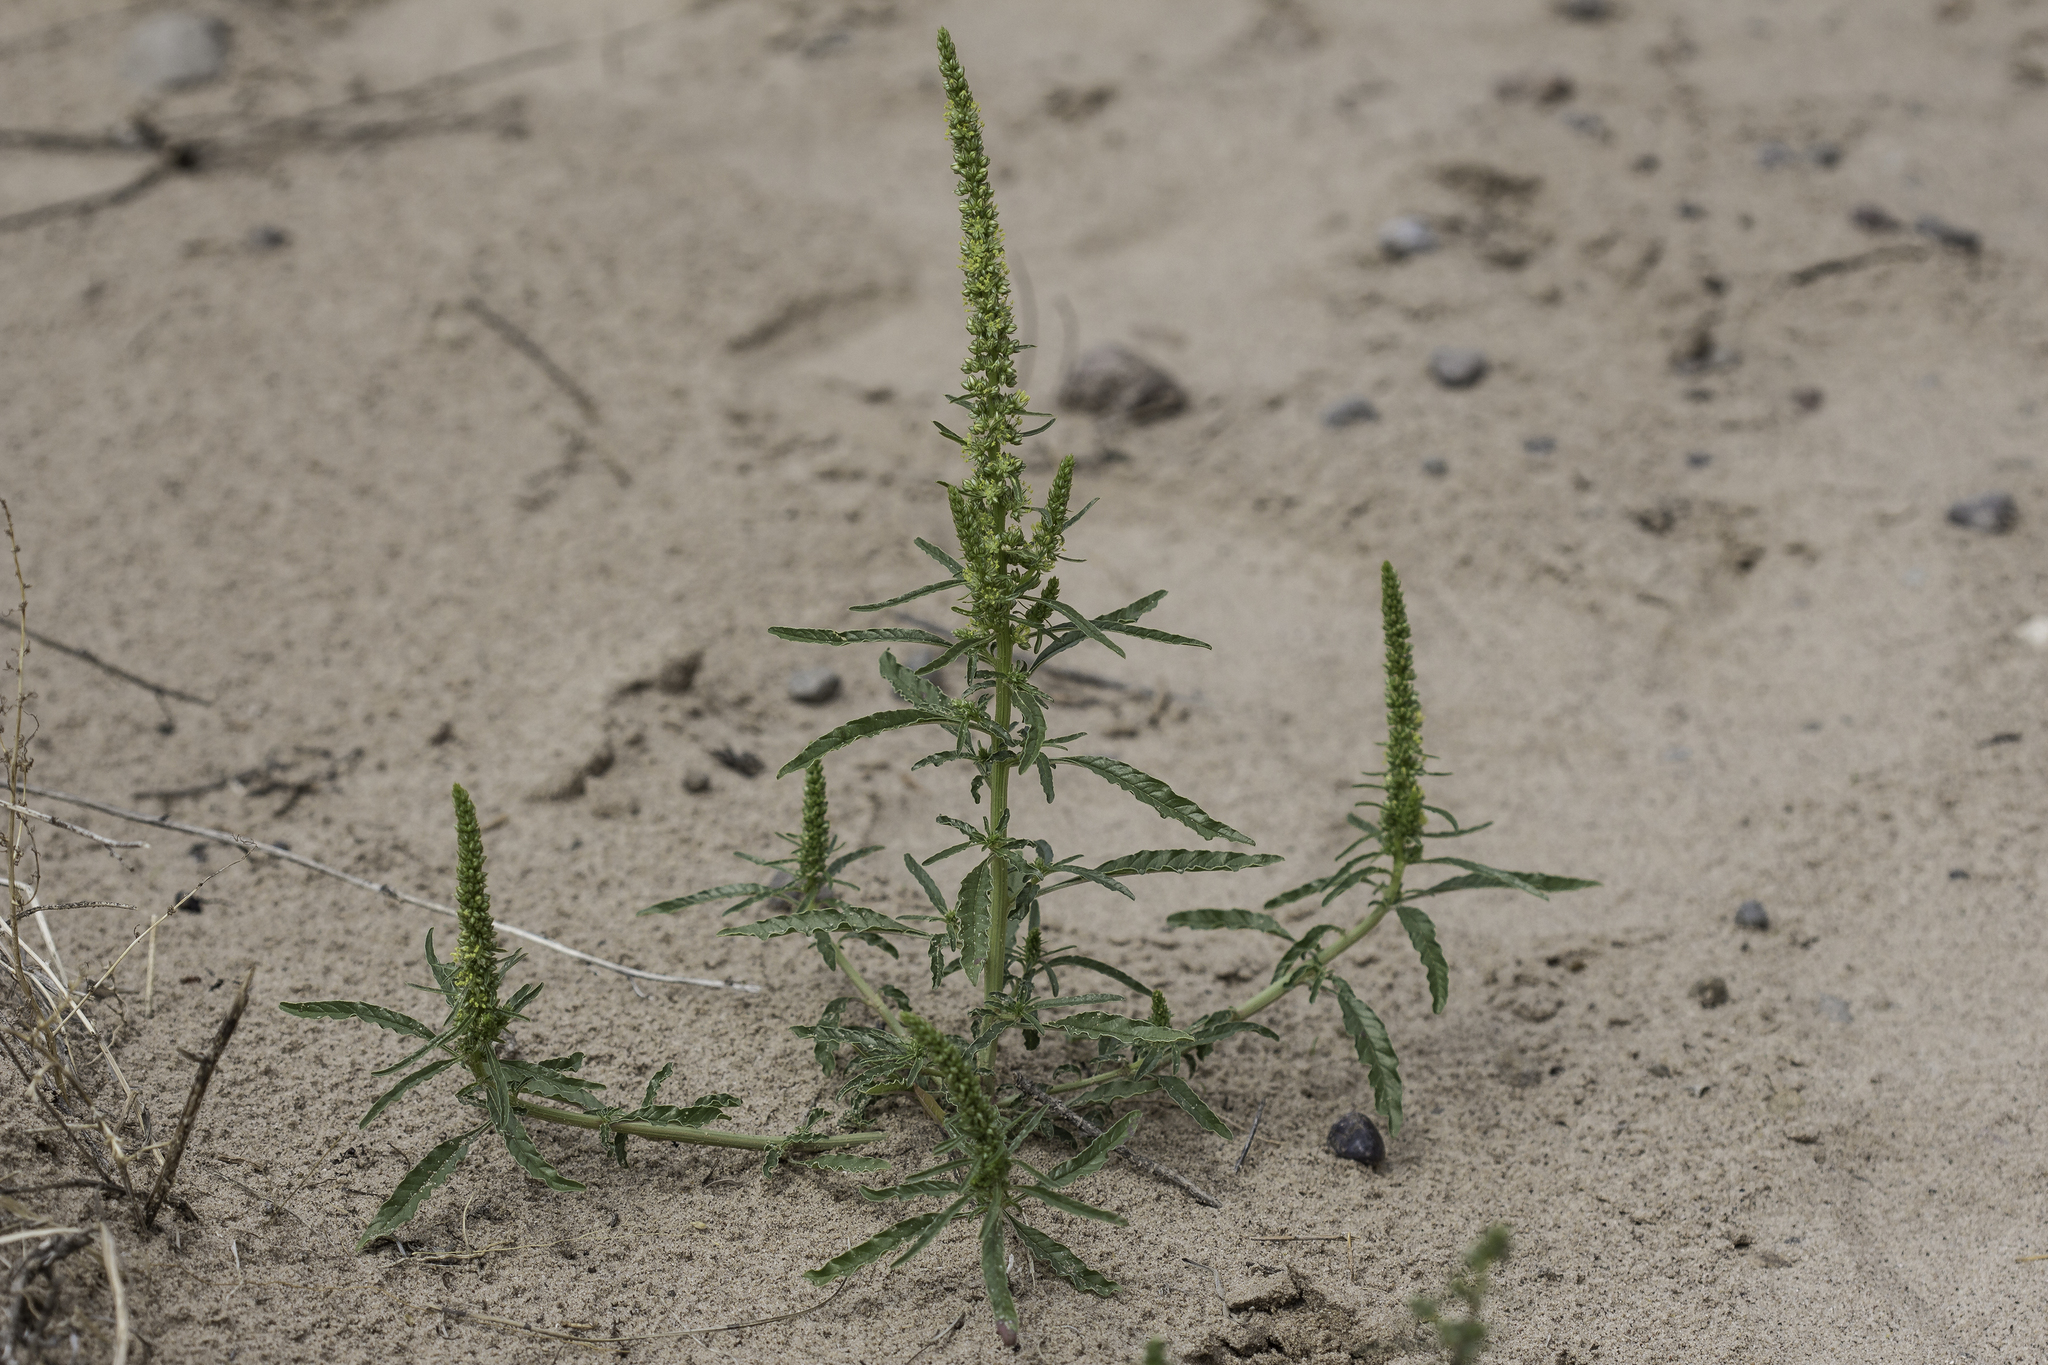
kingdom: Plantae
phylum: Tracheophyta
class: Magnoliopsida
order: Caryophyllales
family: Amaranthaceae
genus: Amaranthus
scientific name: Amaranthus acanthochiton
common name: Greenstripe
